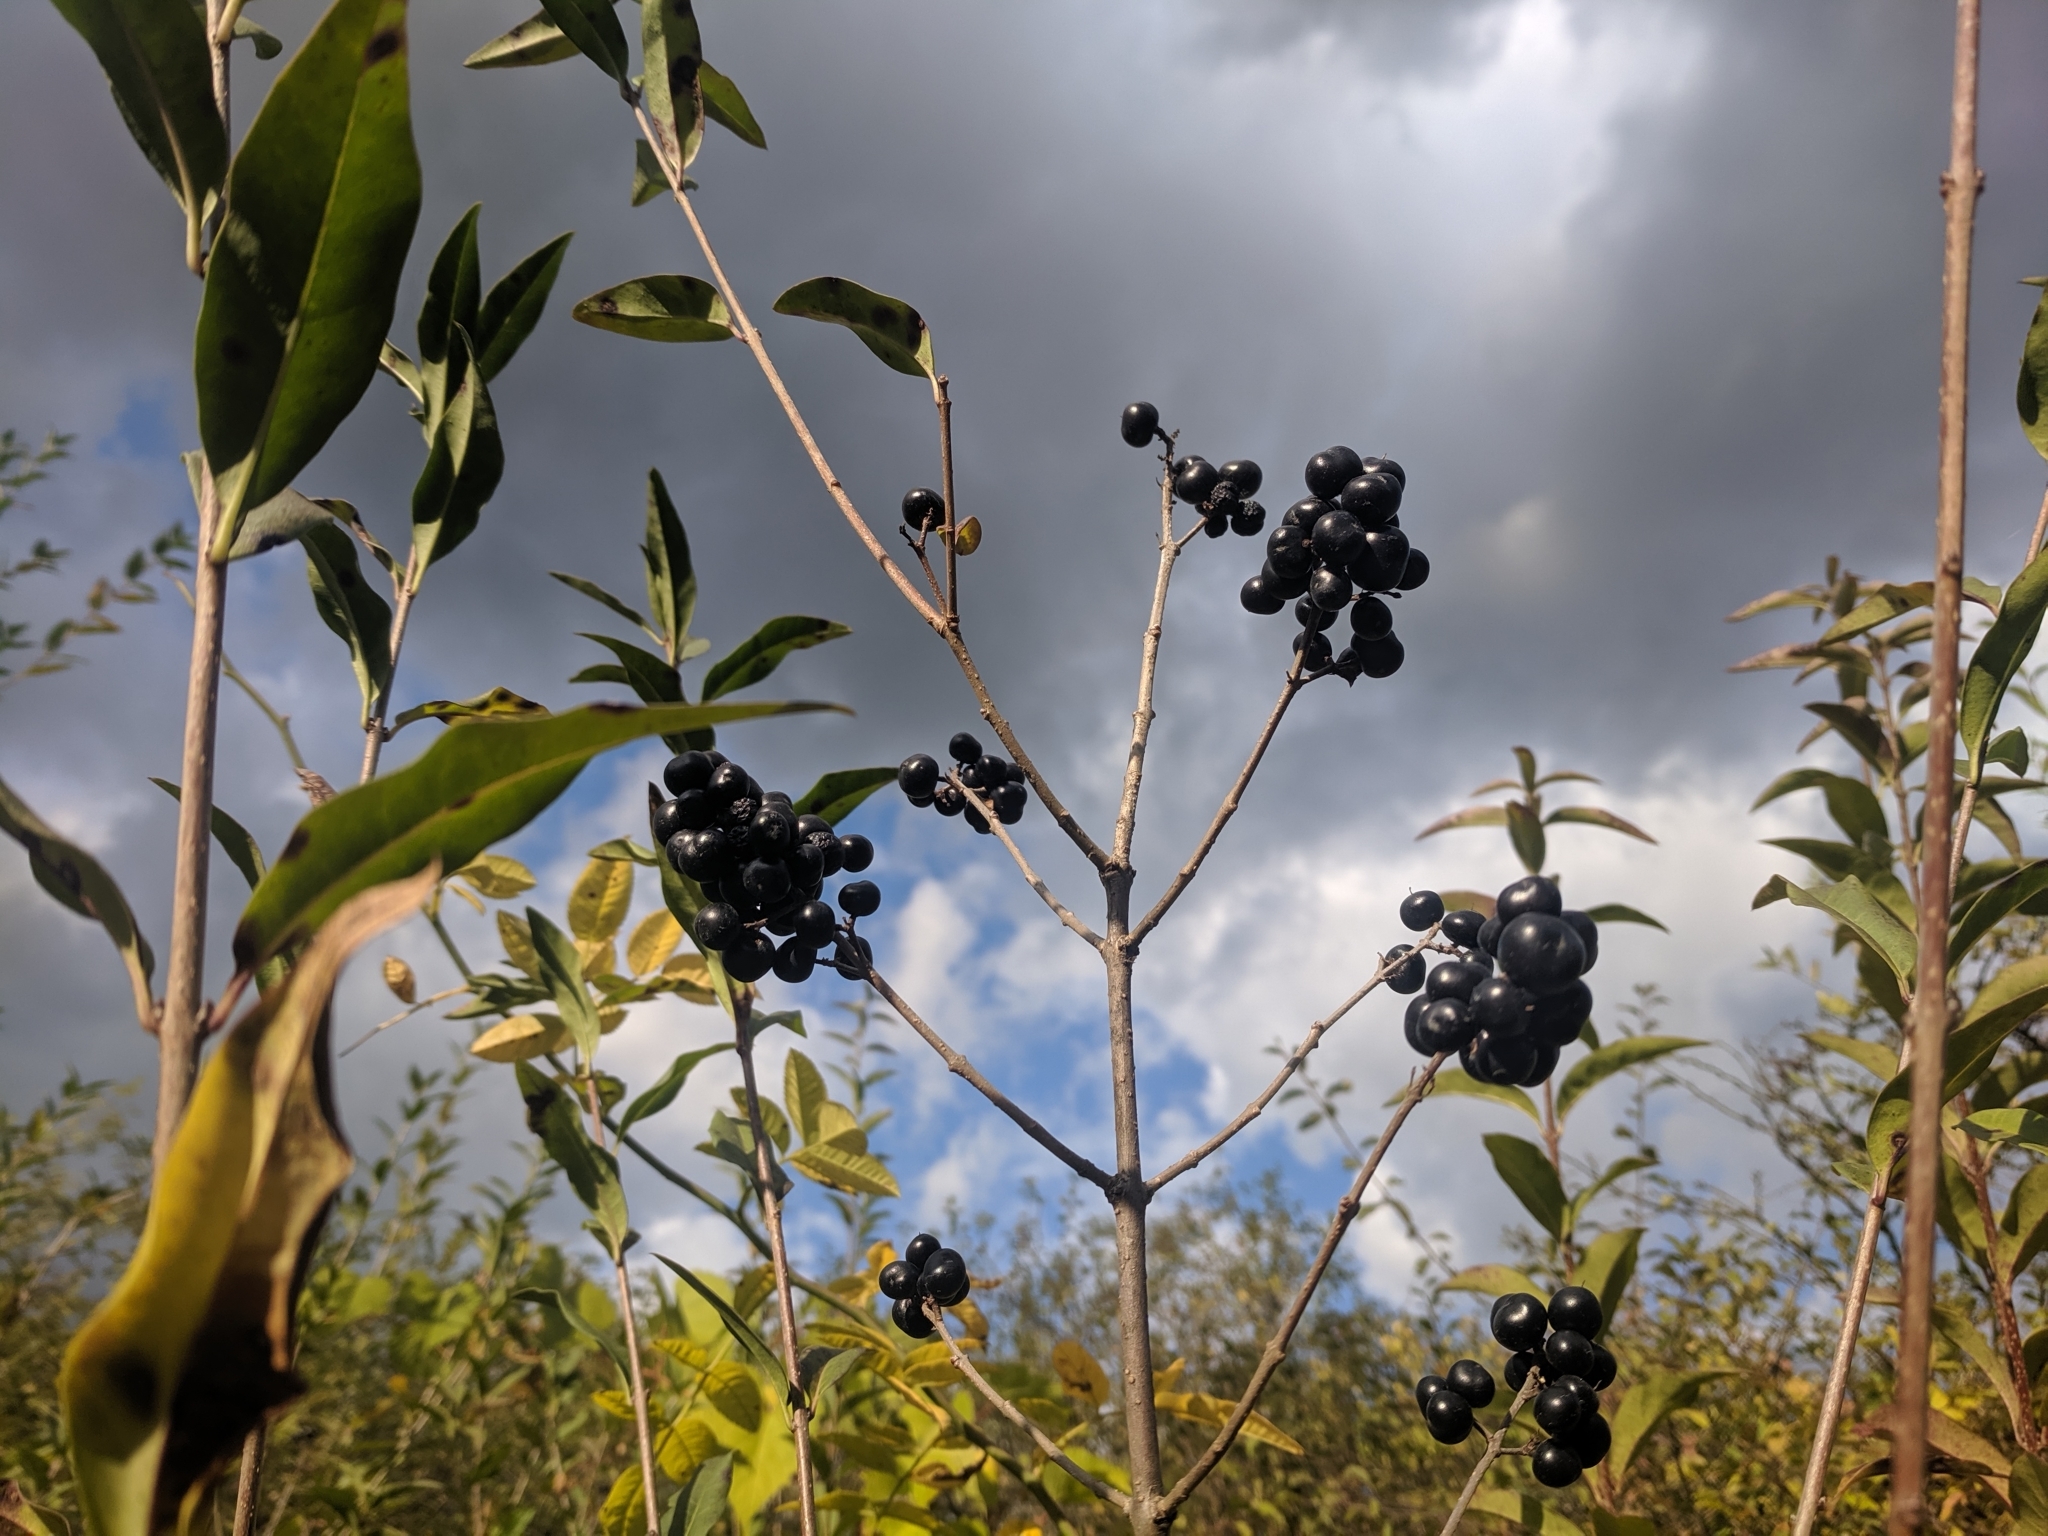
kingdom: Plantae
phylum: Tracheophyta
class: Magnoliopsida
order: Lamiales
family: Oleaceae
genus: Ligustrum
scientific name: Ligustrum vulgare
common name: Wild privet
